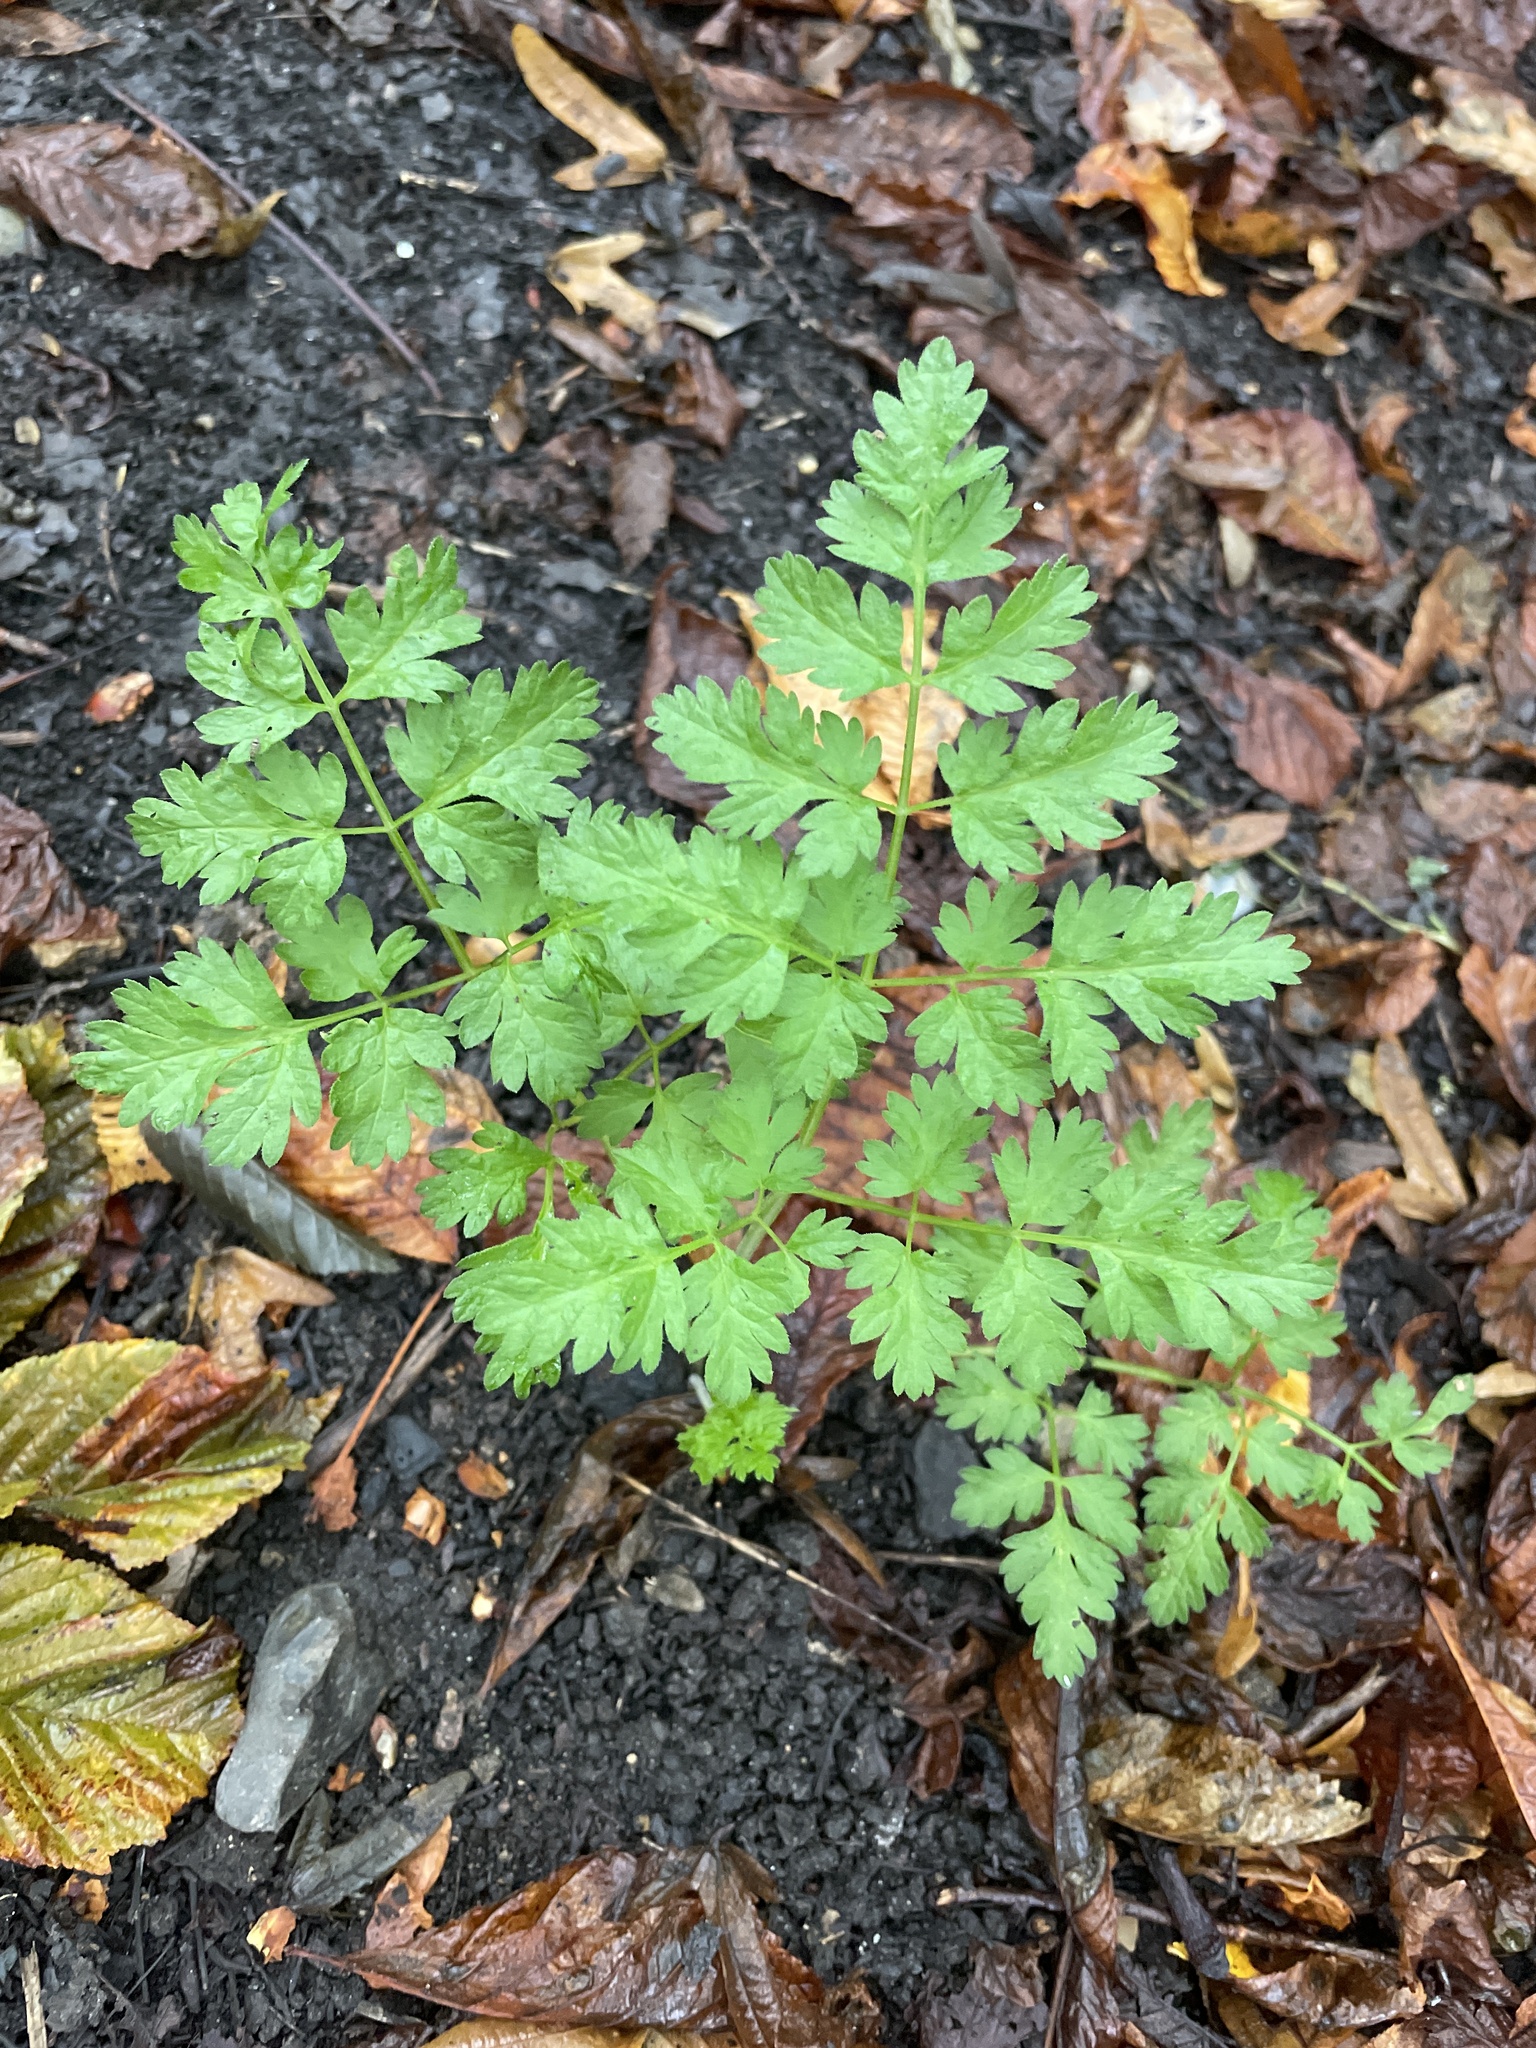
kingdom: Plantae
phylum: Tracheophyta
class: Magnoliopsida
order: Apiales
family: Apiaceae
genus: Anthriscus
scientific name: Anthriscus sylvestris
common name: Cow parsley
